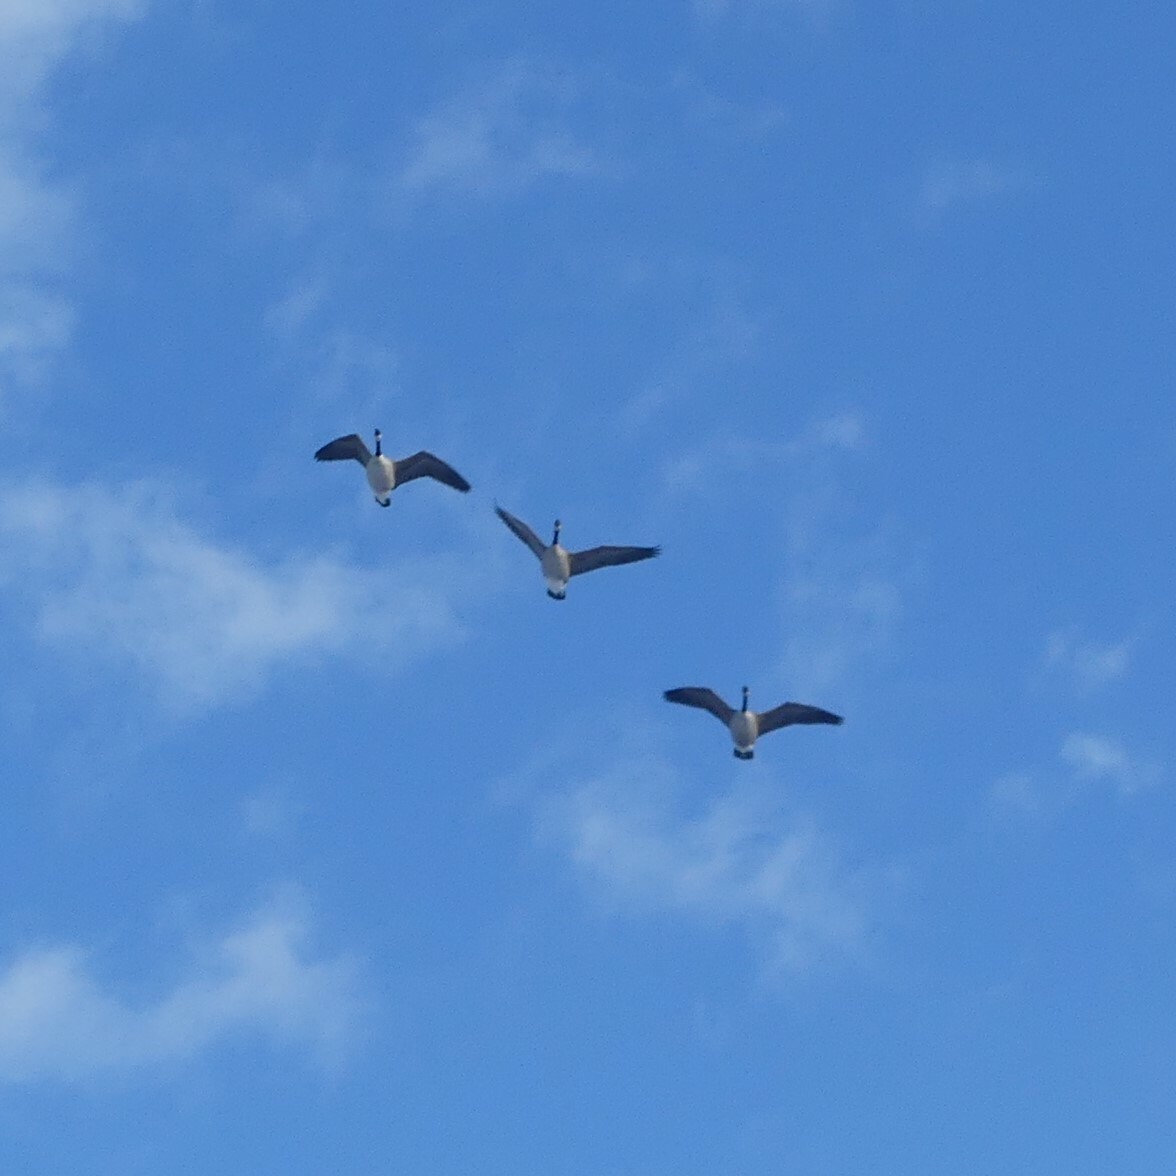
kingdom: Animalia
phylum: Chordata
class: Aves
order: Anseriformes
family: Anatidae
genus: Branta
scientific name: Branta canadensis
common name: Canada goose
